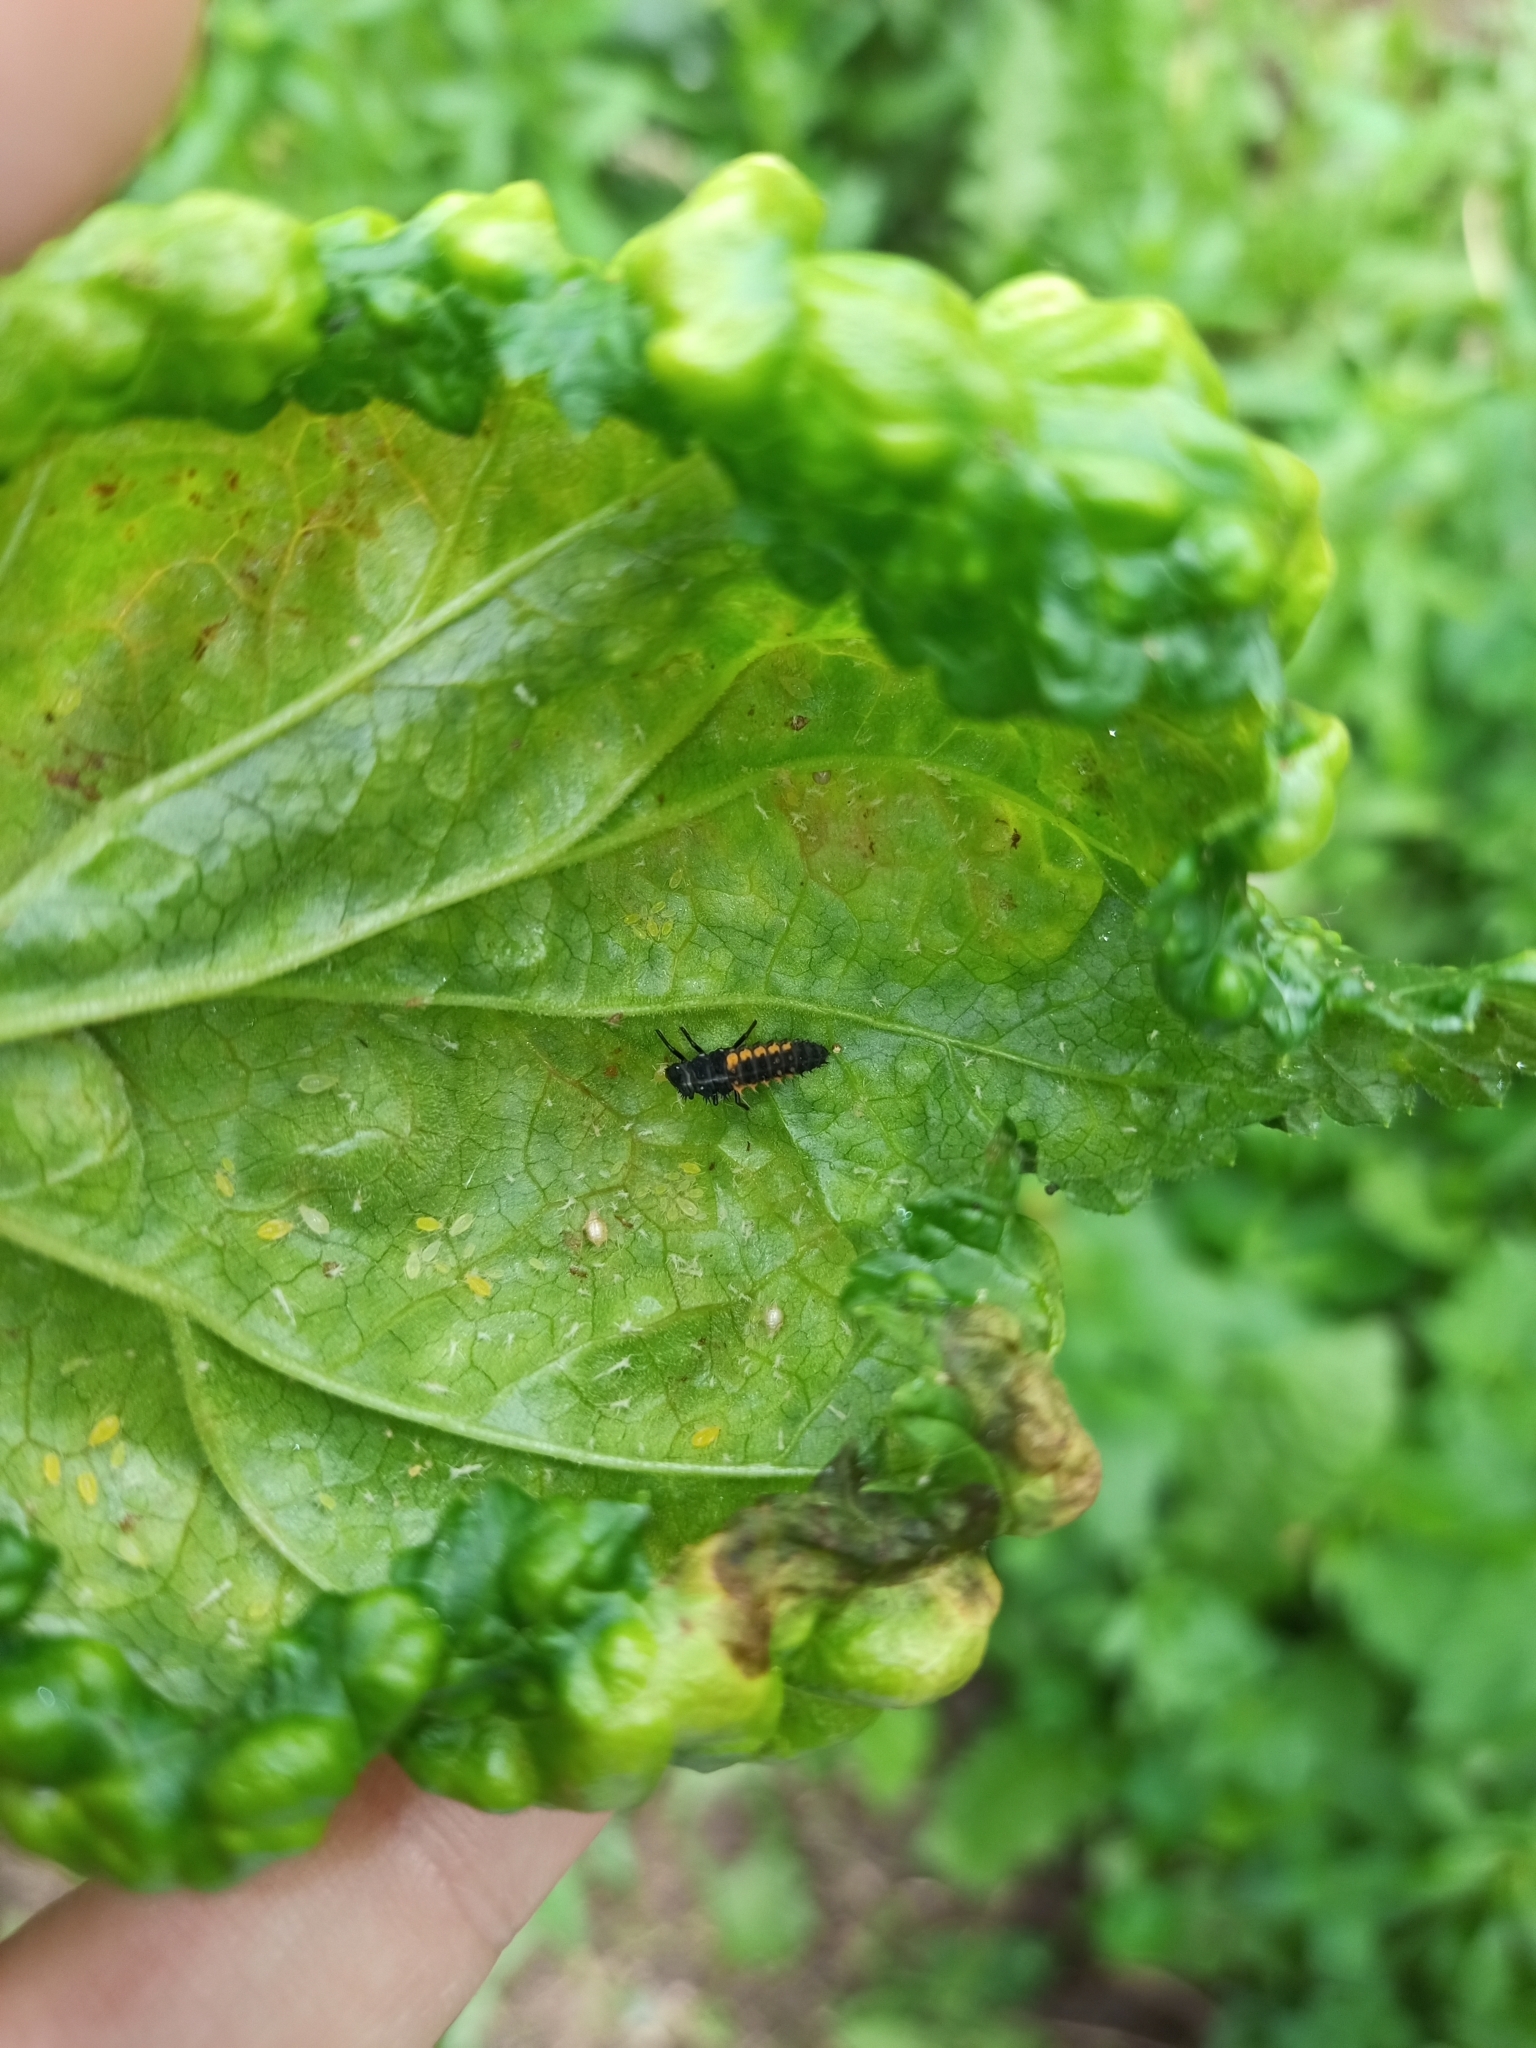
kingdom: Animalia
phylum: Arthropoda
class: Insecta
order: Coleoptera
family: Coccinellidae
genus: Harmonia
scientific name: Harmonia axyridis
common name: Harlequin ladybird
